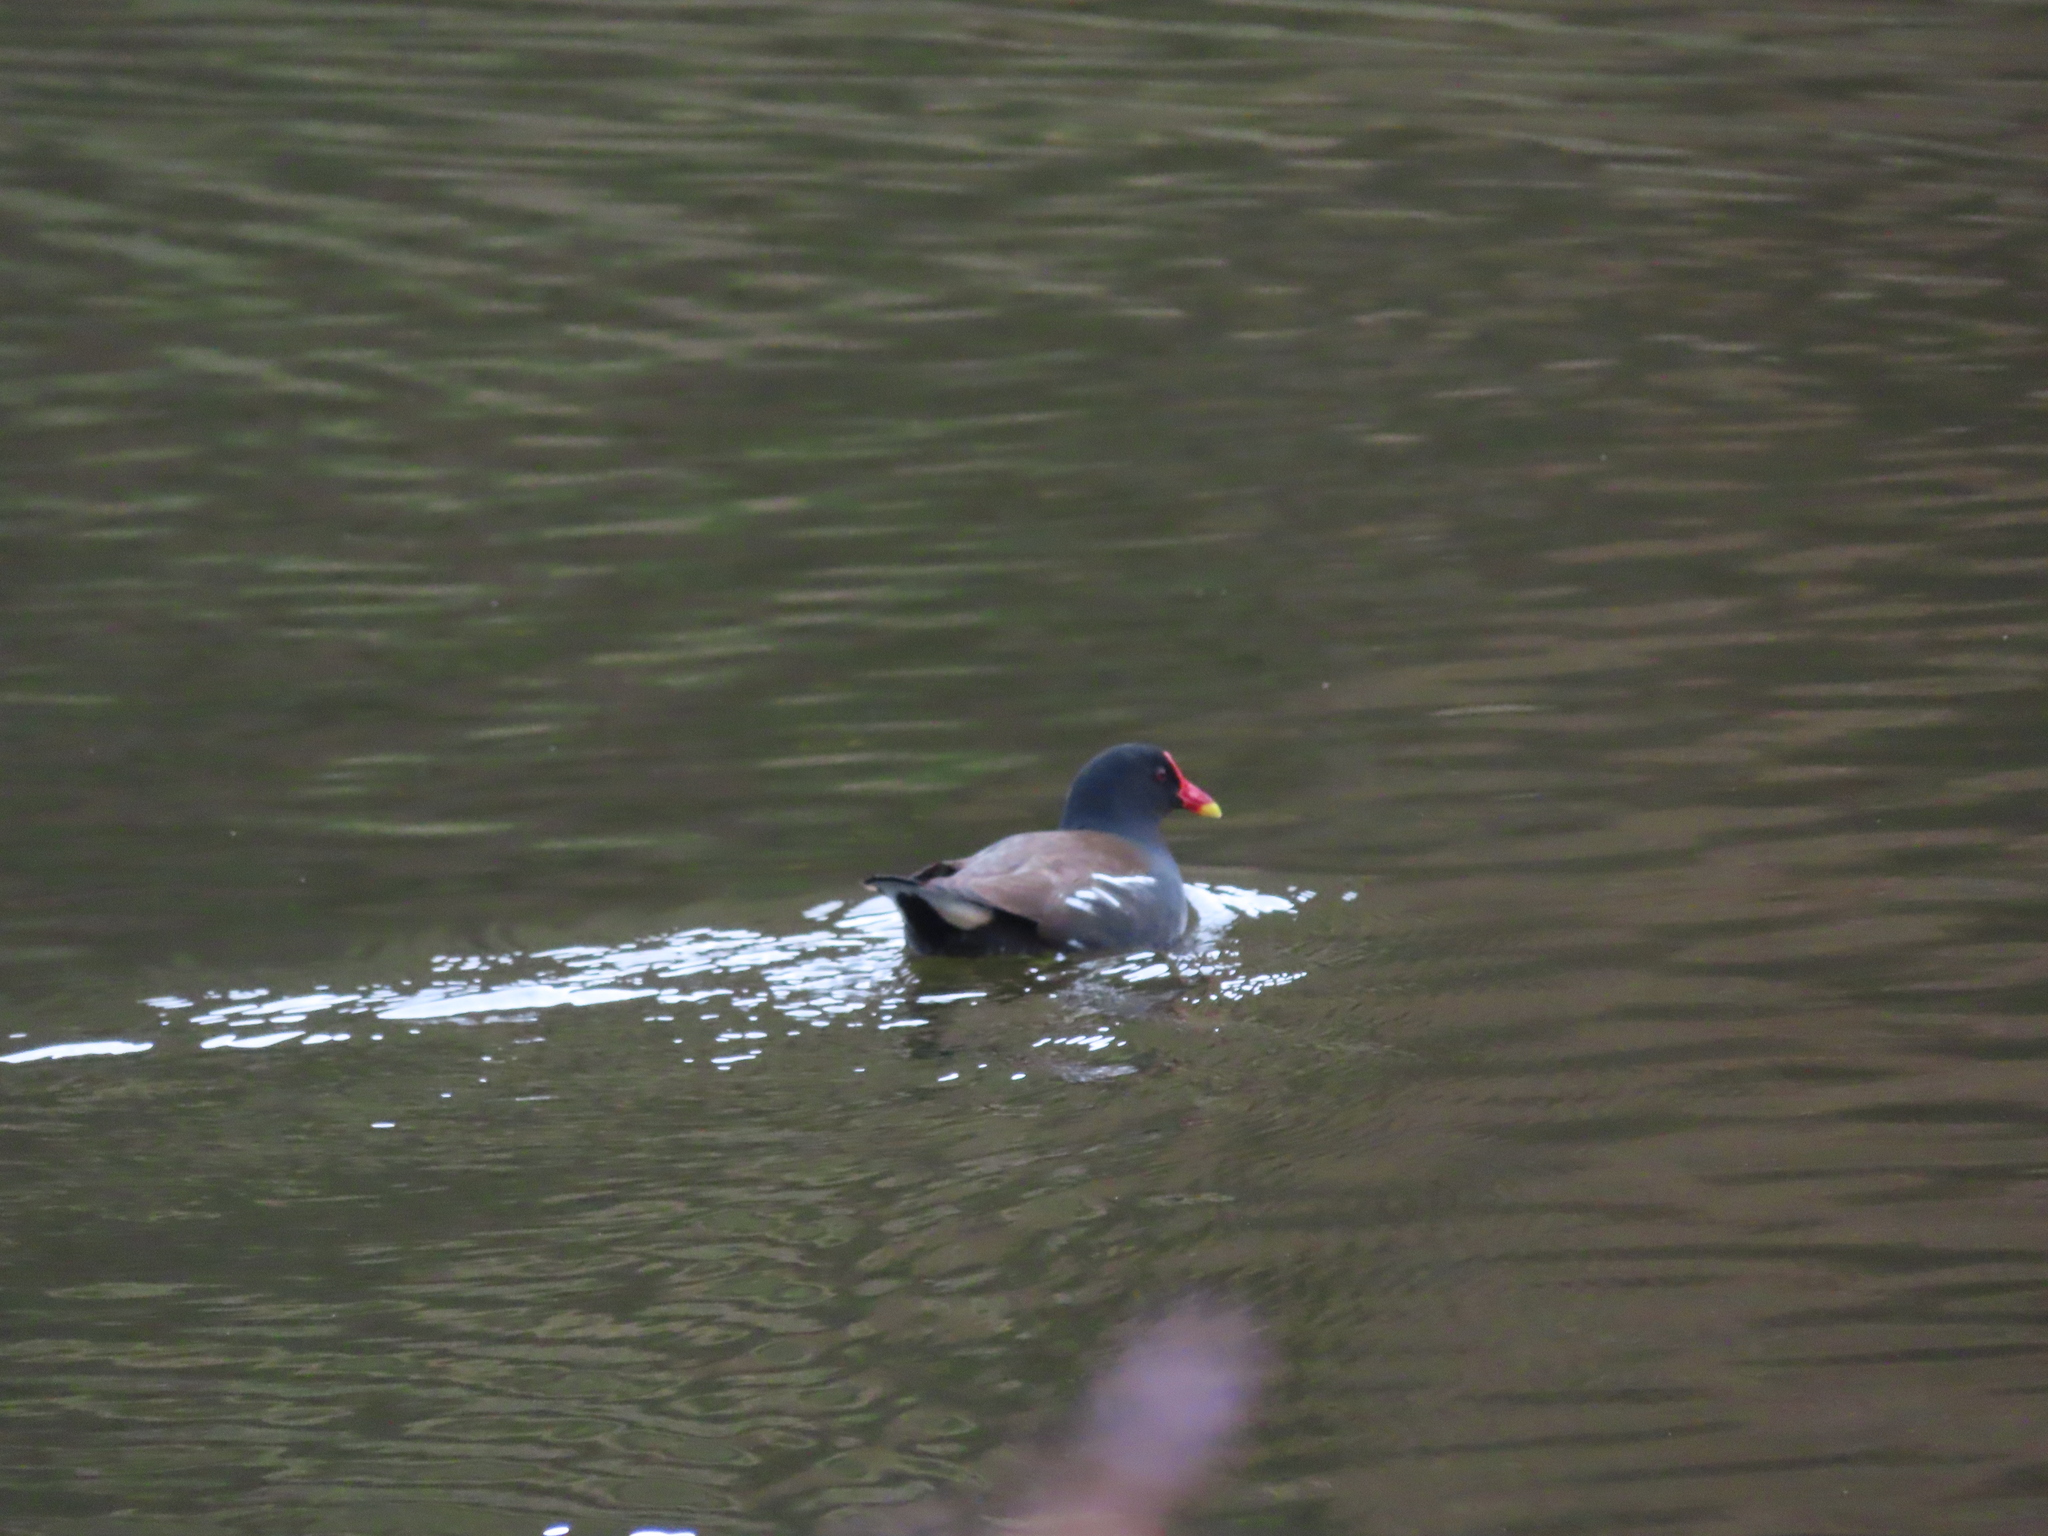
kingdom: Animalia
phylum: Chordata
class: Aves
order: Gruiformes
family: Rallidae
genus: Gallinula
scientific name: Gallinula chloropus
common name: Common moorhen
